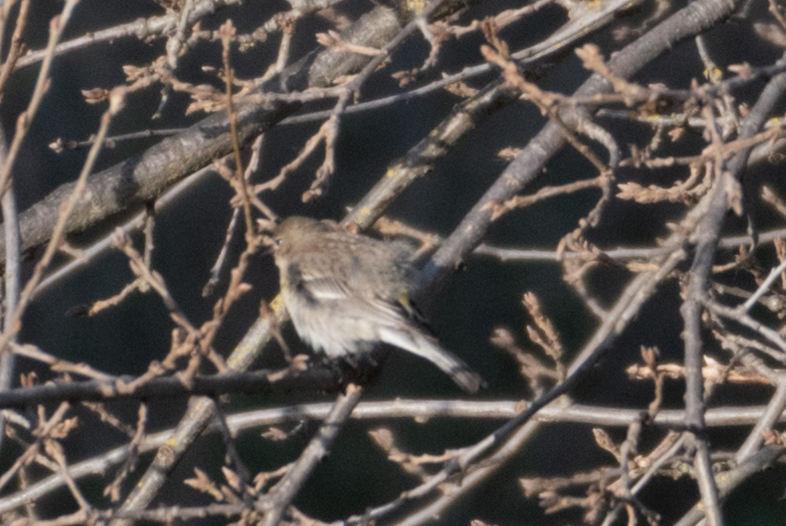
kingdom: Animalia
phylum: Chordata
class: Aves
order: Passeriformes
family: Parulidae
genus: Setophaga
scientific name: Setophaga coronata
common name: Myrtle warbler
